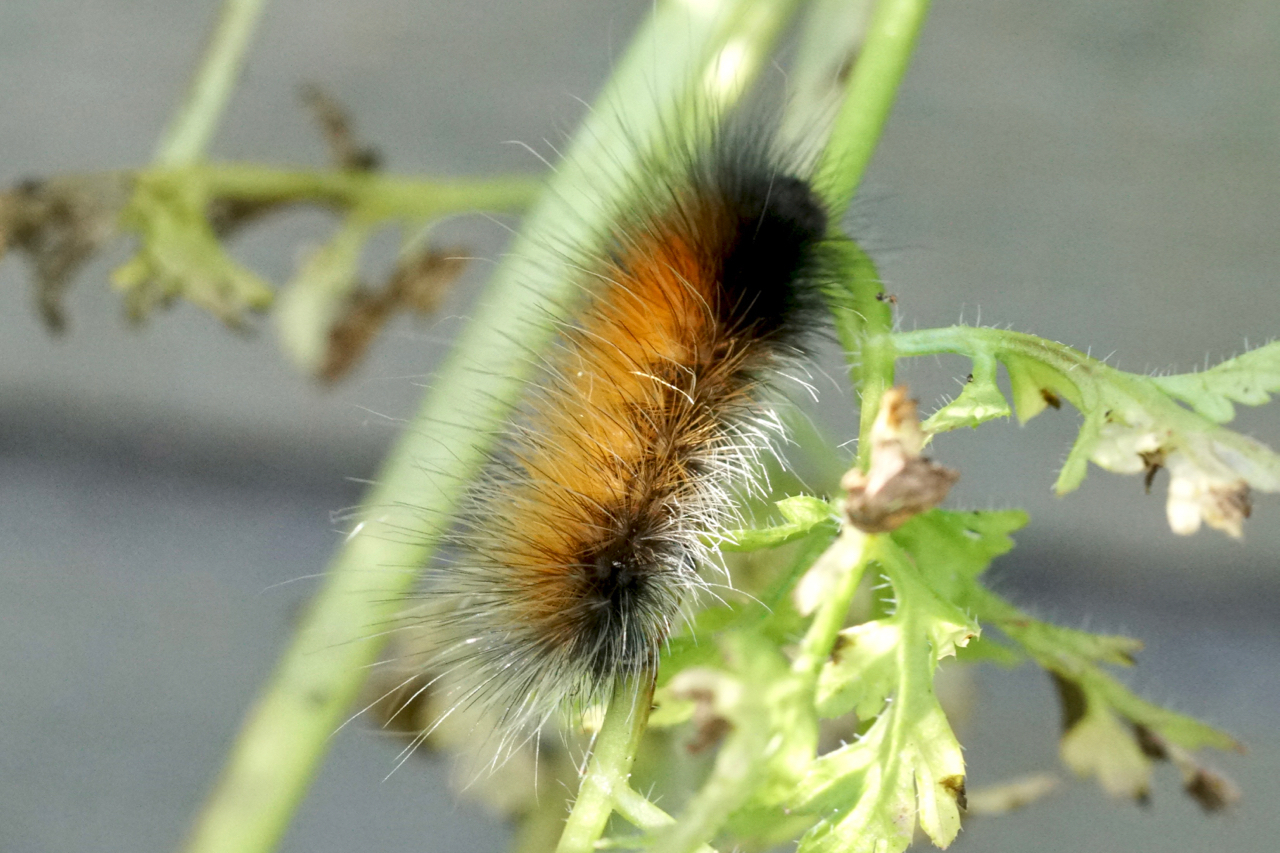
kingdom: Animalia
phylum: Arthropoda
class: Insecta
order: Lepidoptera
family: Erebidae
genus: Spilosoma
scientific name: Spilosoma virginica
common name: Virginia tiger moth
